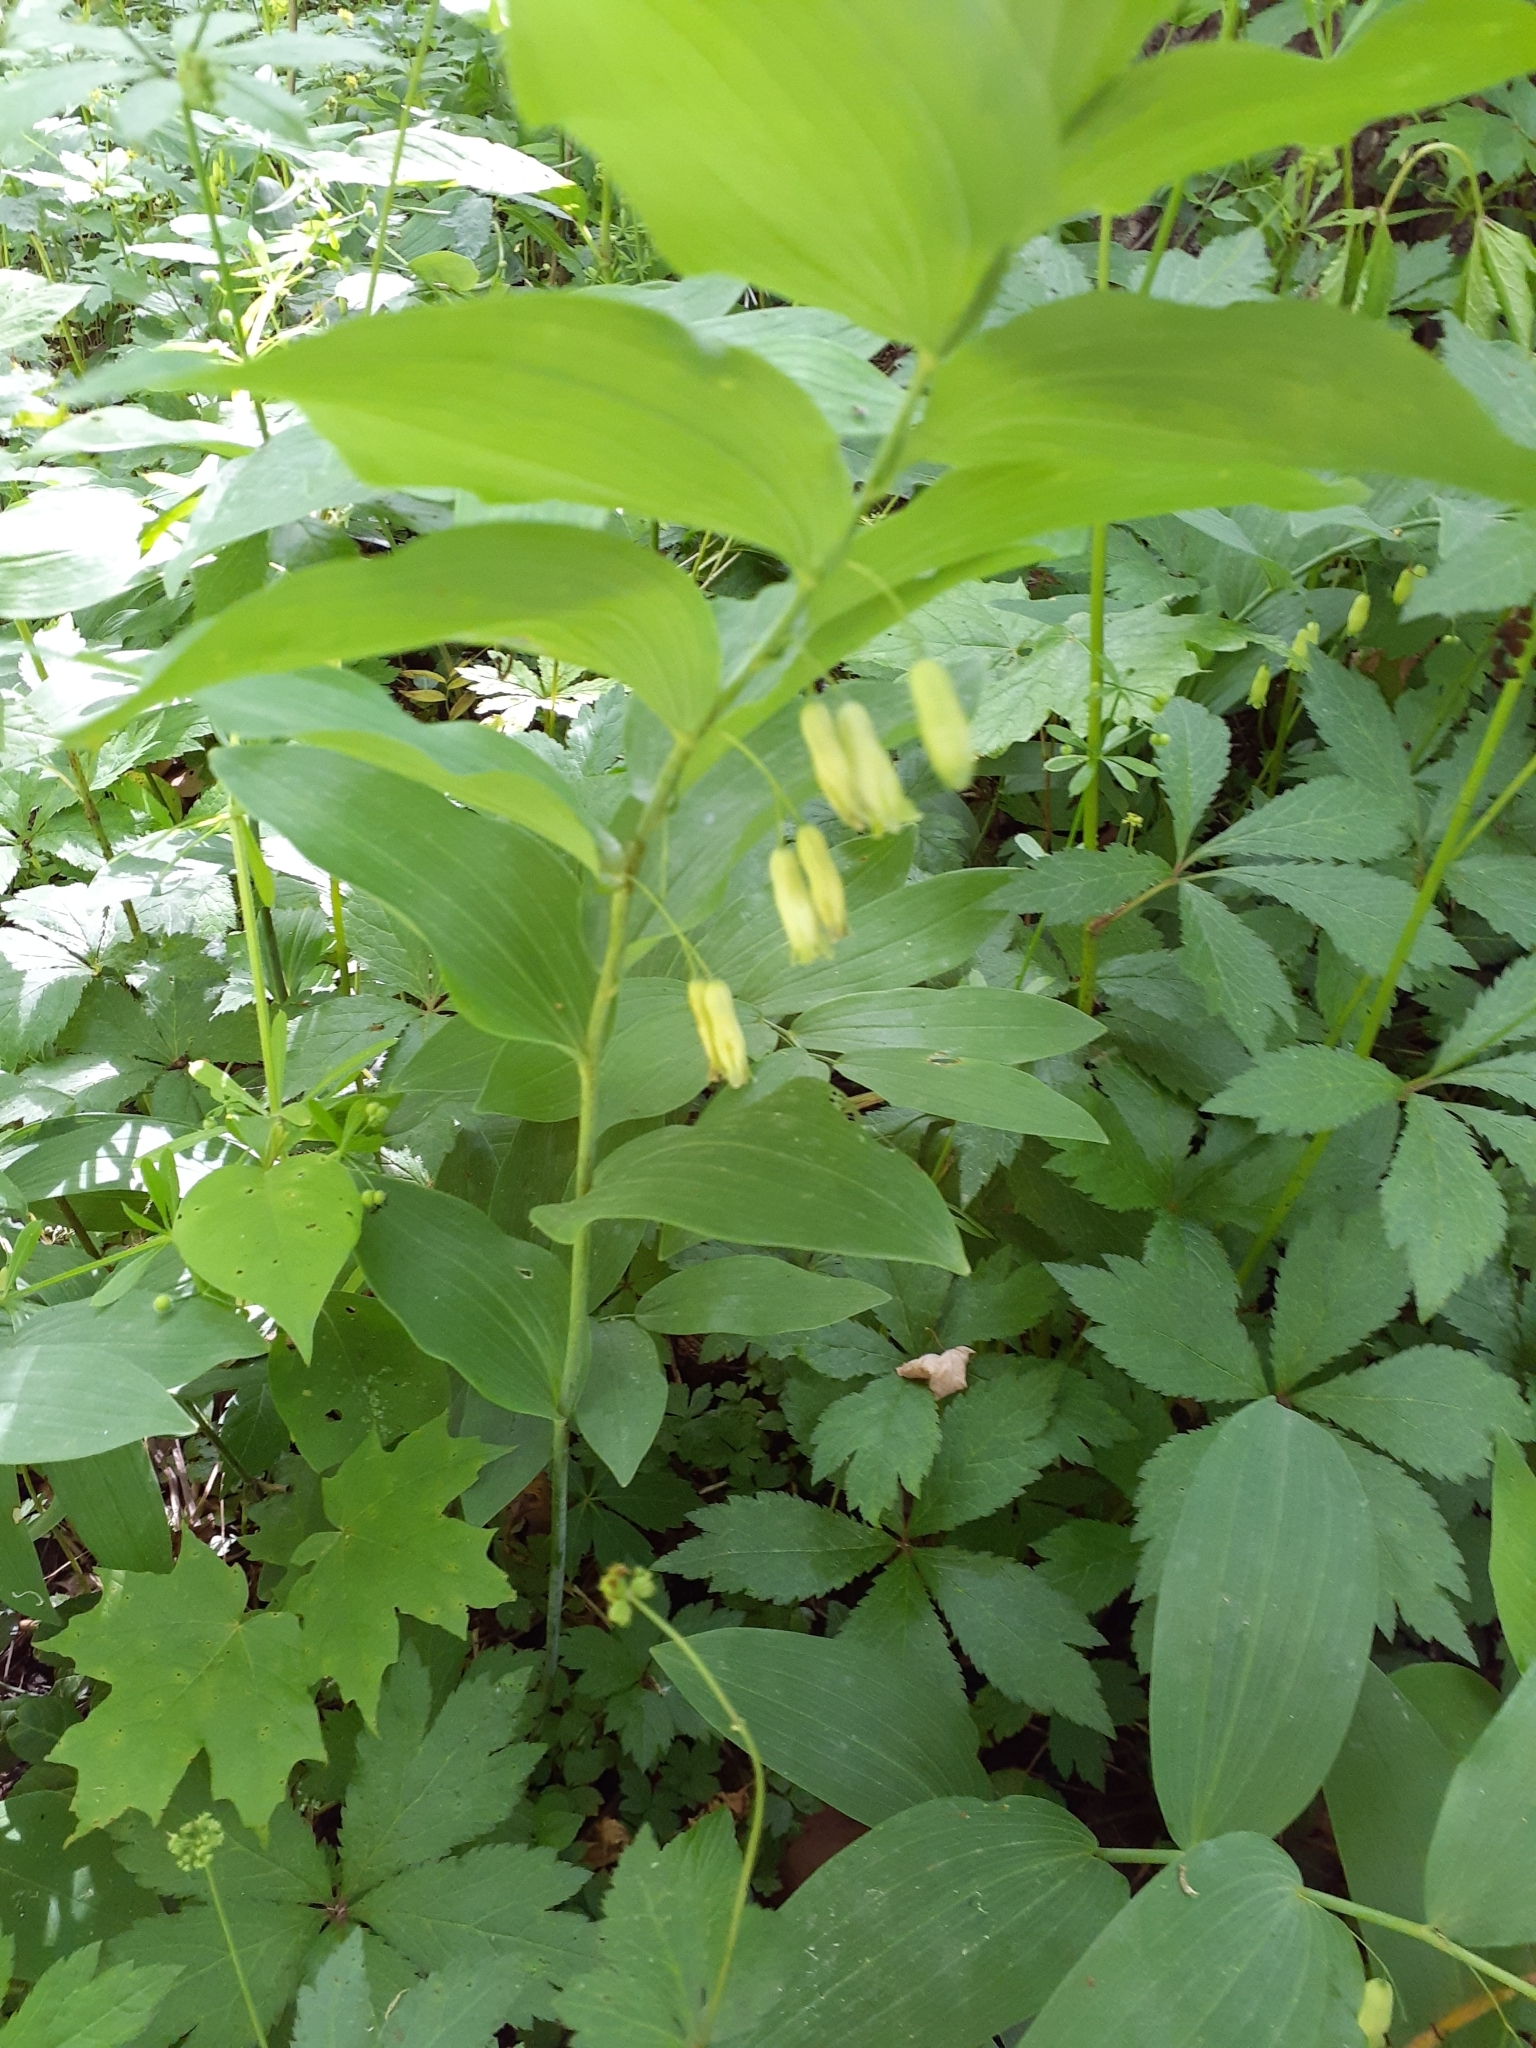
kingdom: Plantae
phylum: Tracheophyta
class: Liliopsida
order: Asparagales
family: Asparagaceae
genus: Polygonatum
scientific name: Polygonatum biflorum
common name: American solomon's-seal
